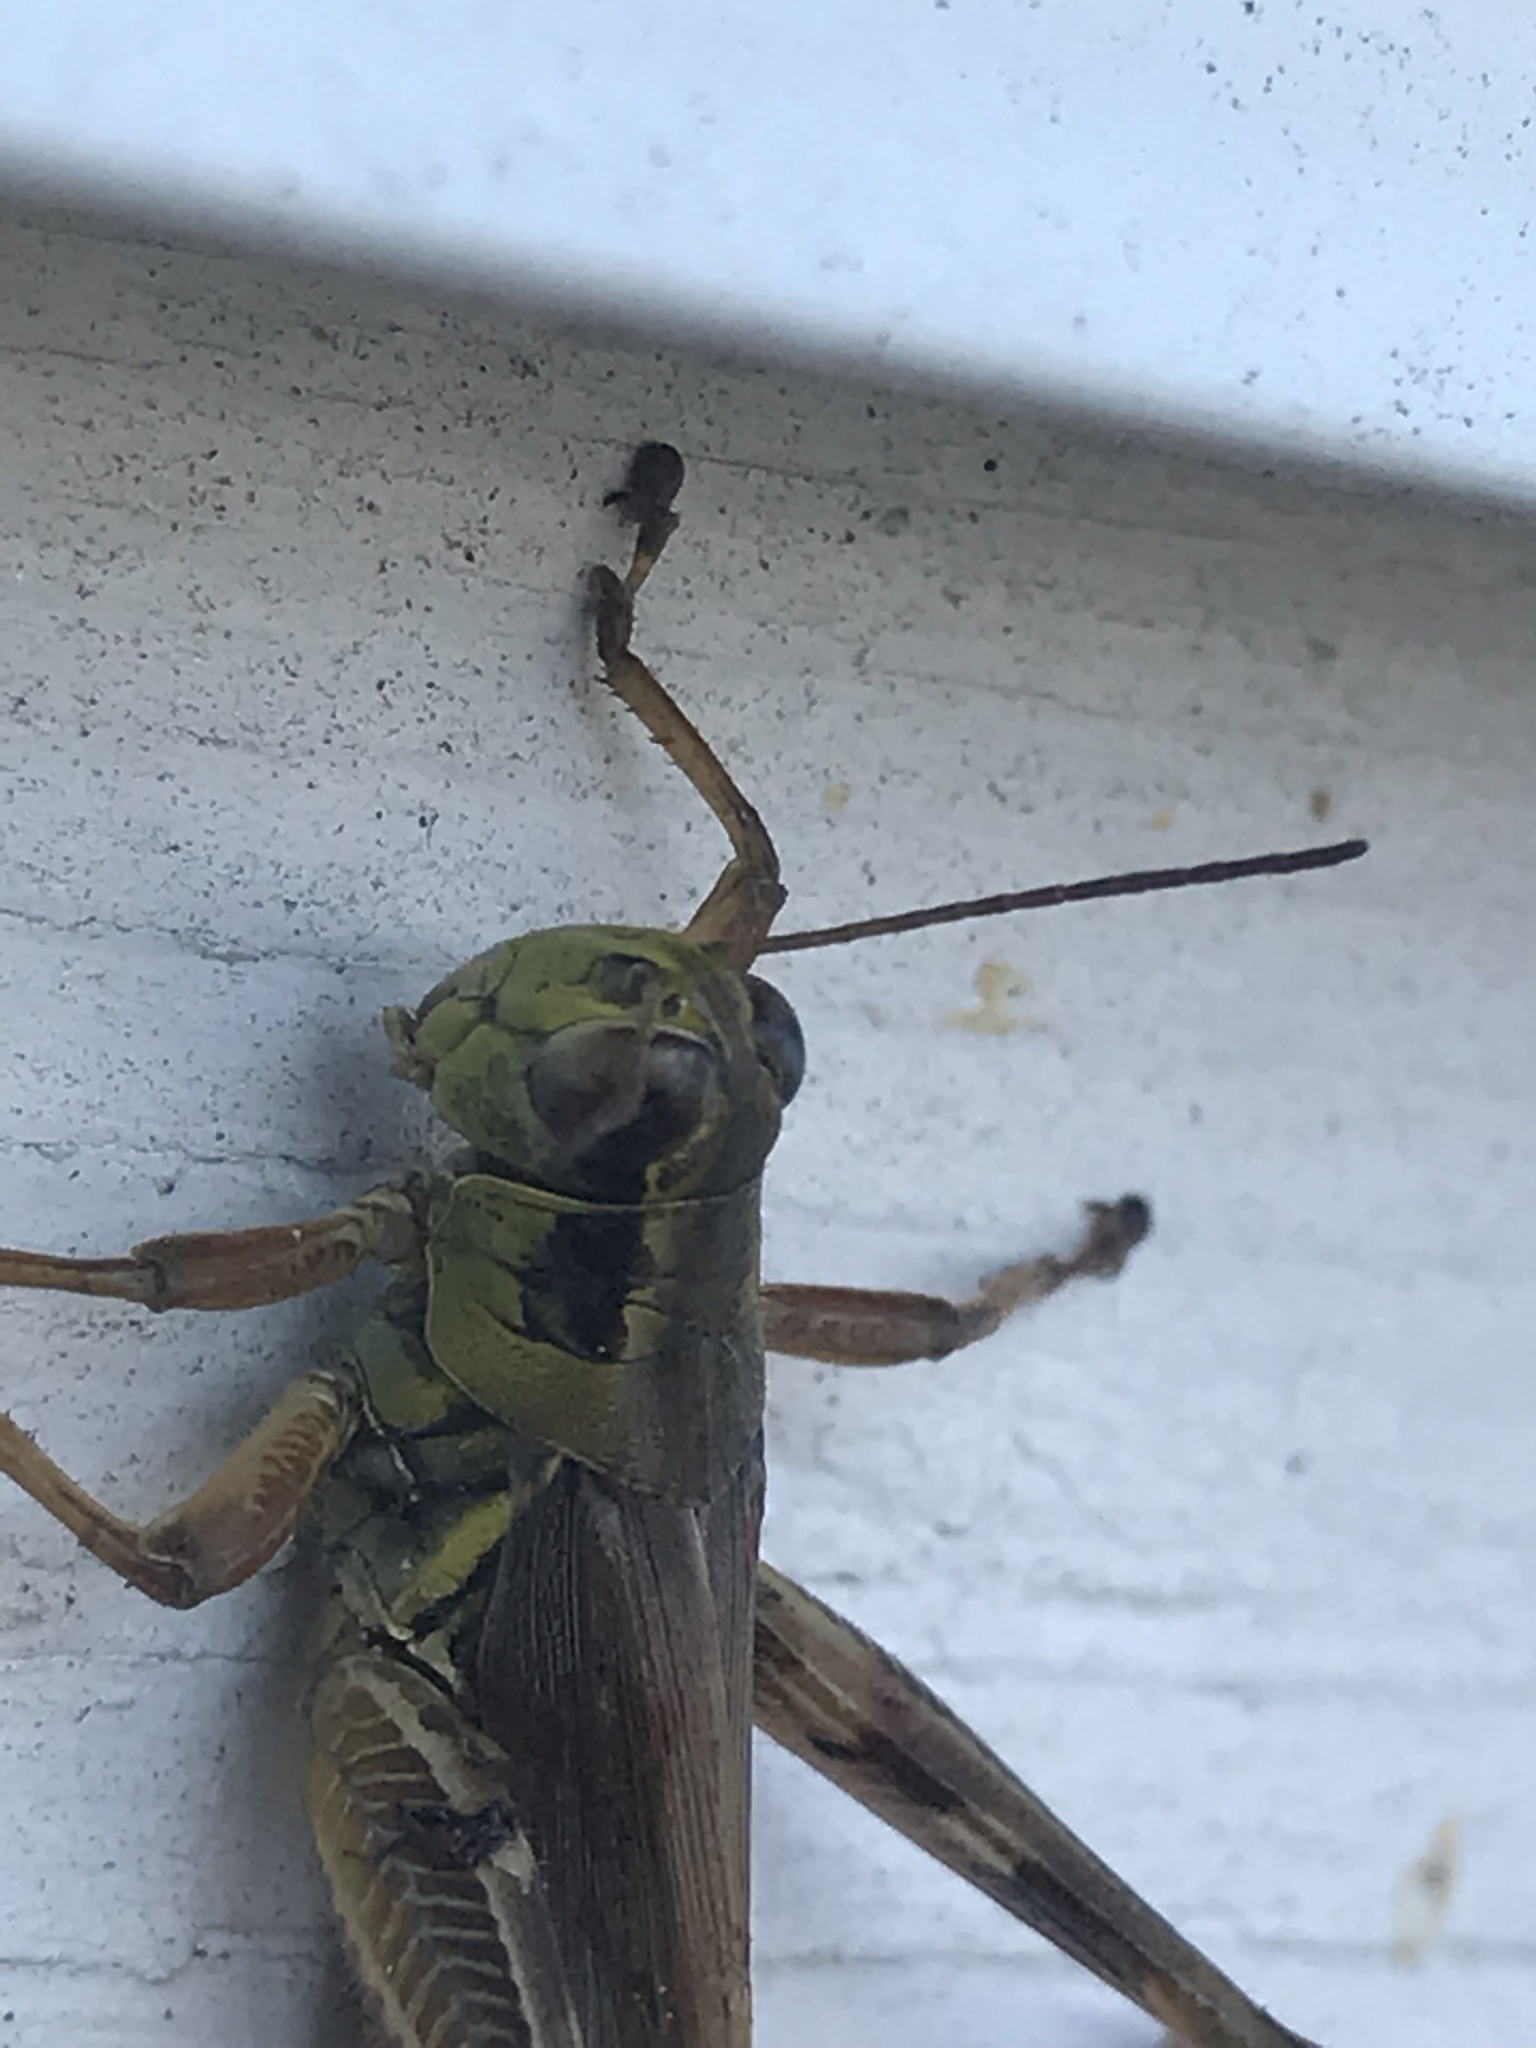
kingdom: Animalia
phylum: Arthropoda
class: Insecta
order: Orthoptera
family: Acrididae
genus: Melanoplus
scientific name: Melanoplus femurrubrum
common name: Red-legged grasshopper
